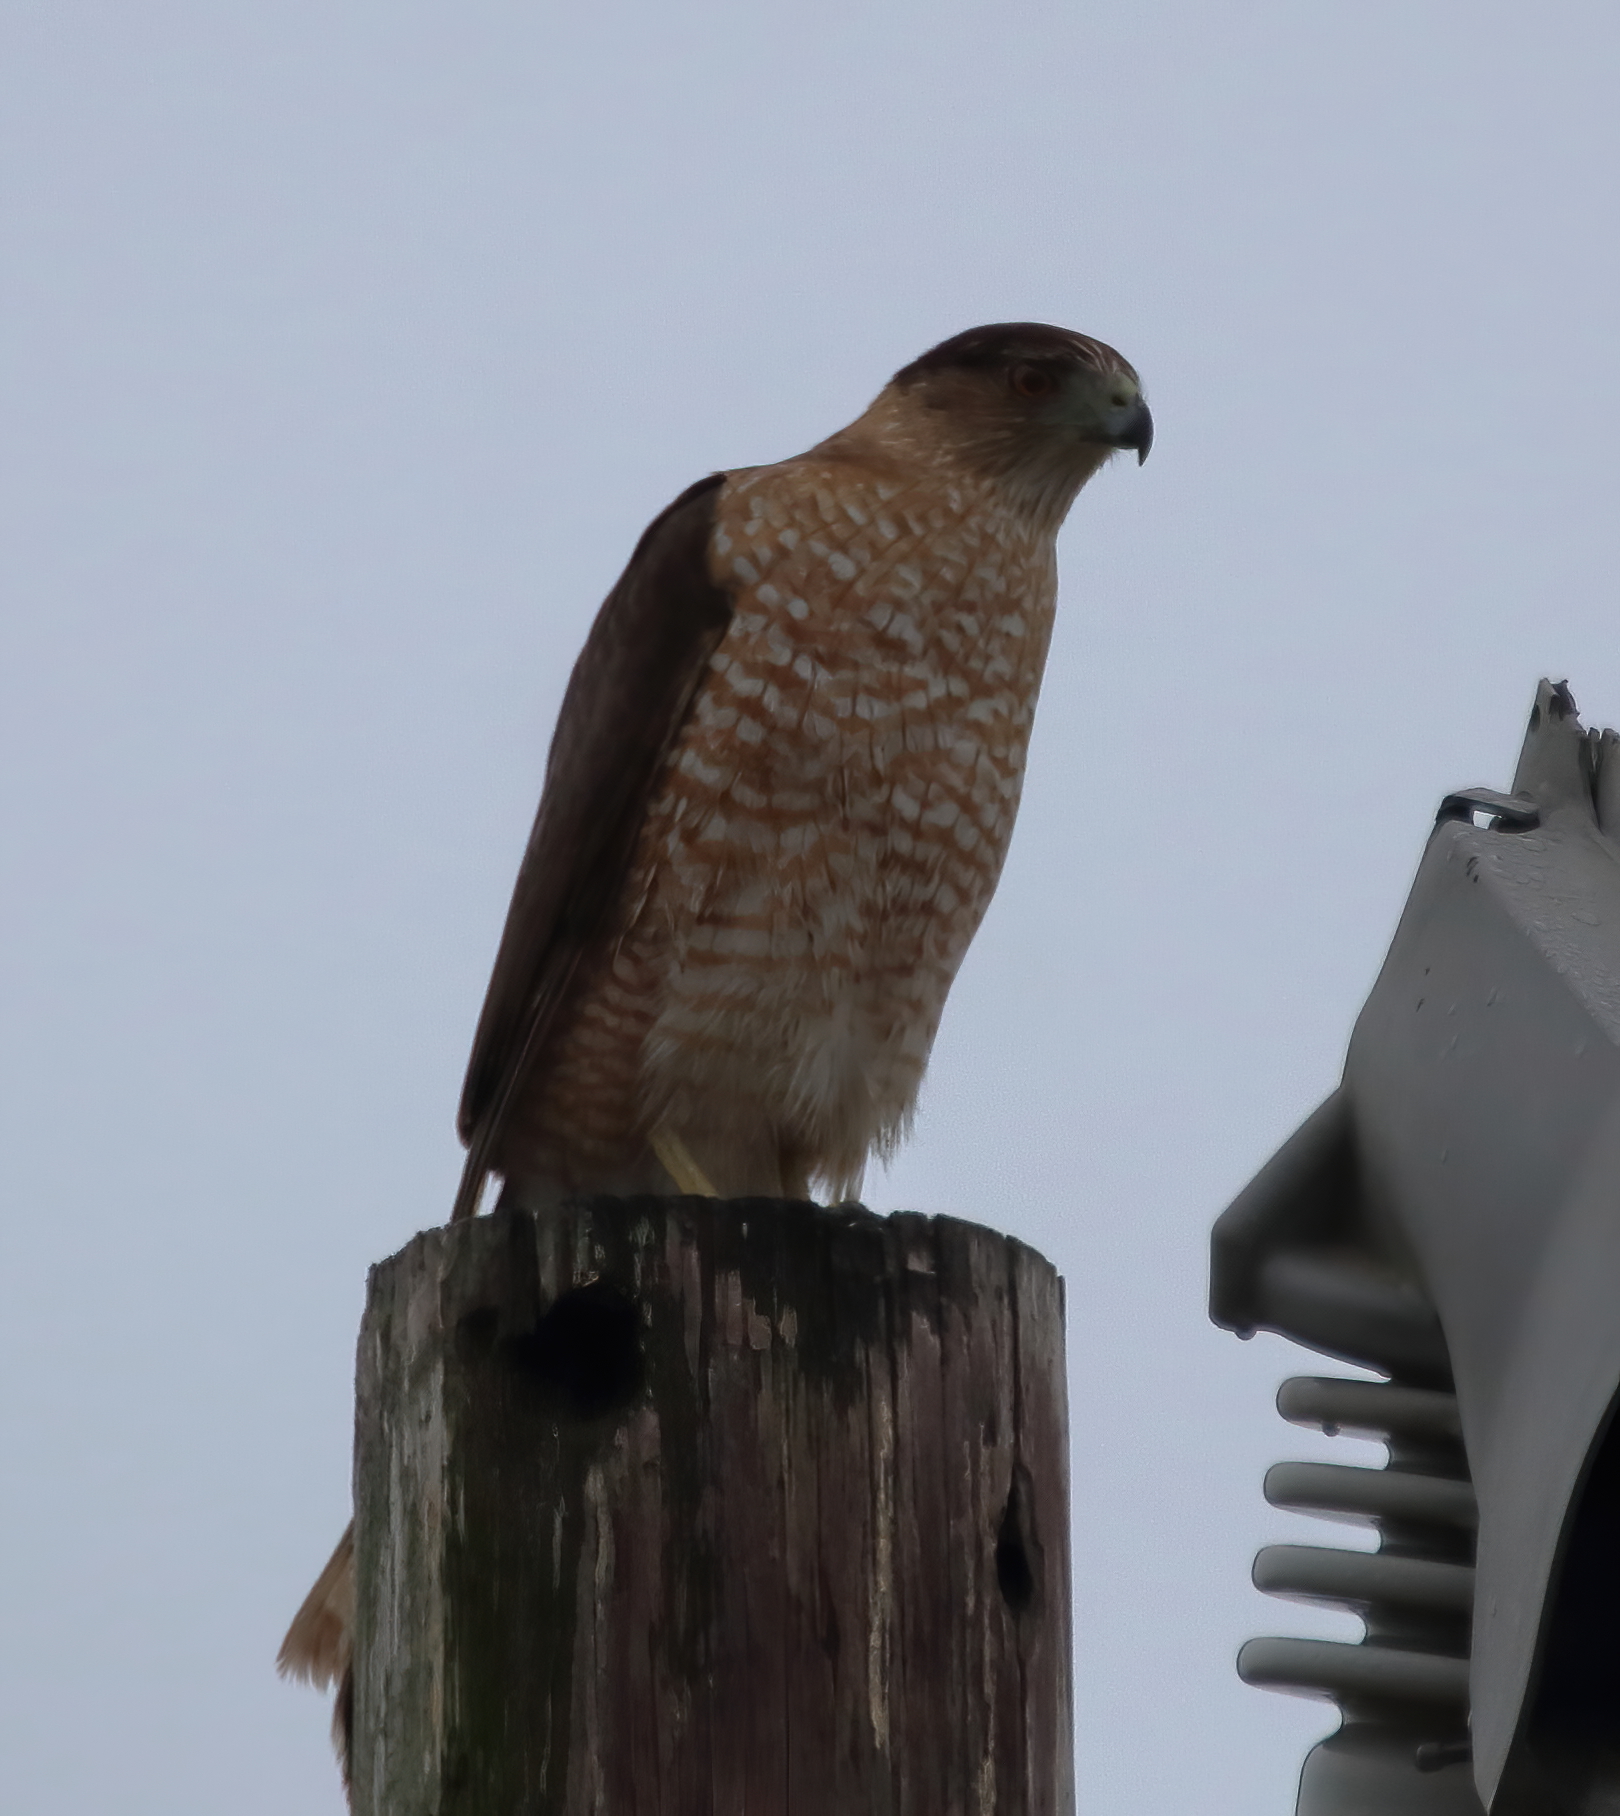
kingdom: Animalia
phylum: Chordata
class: Aves
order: Accipitriformes
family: Accipitridae
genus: Accipiter
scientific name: Accipiter cooperii
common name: Cooper's hawk
